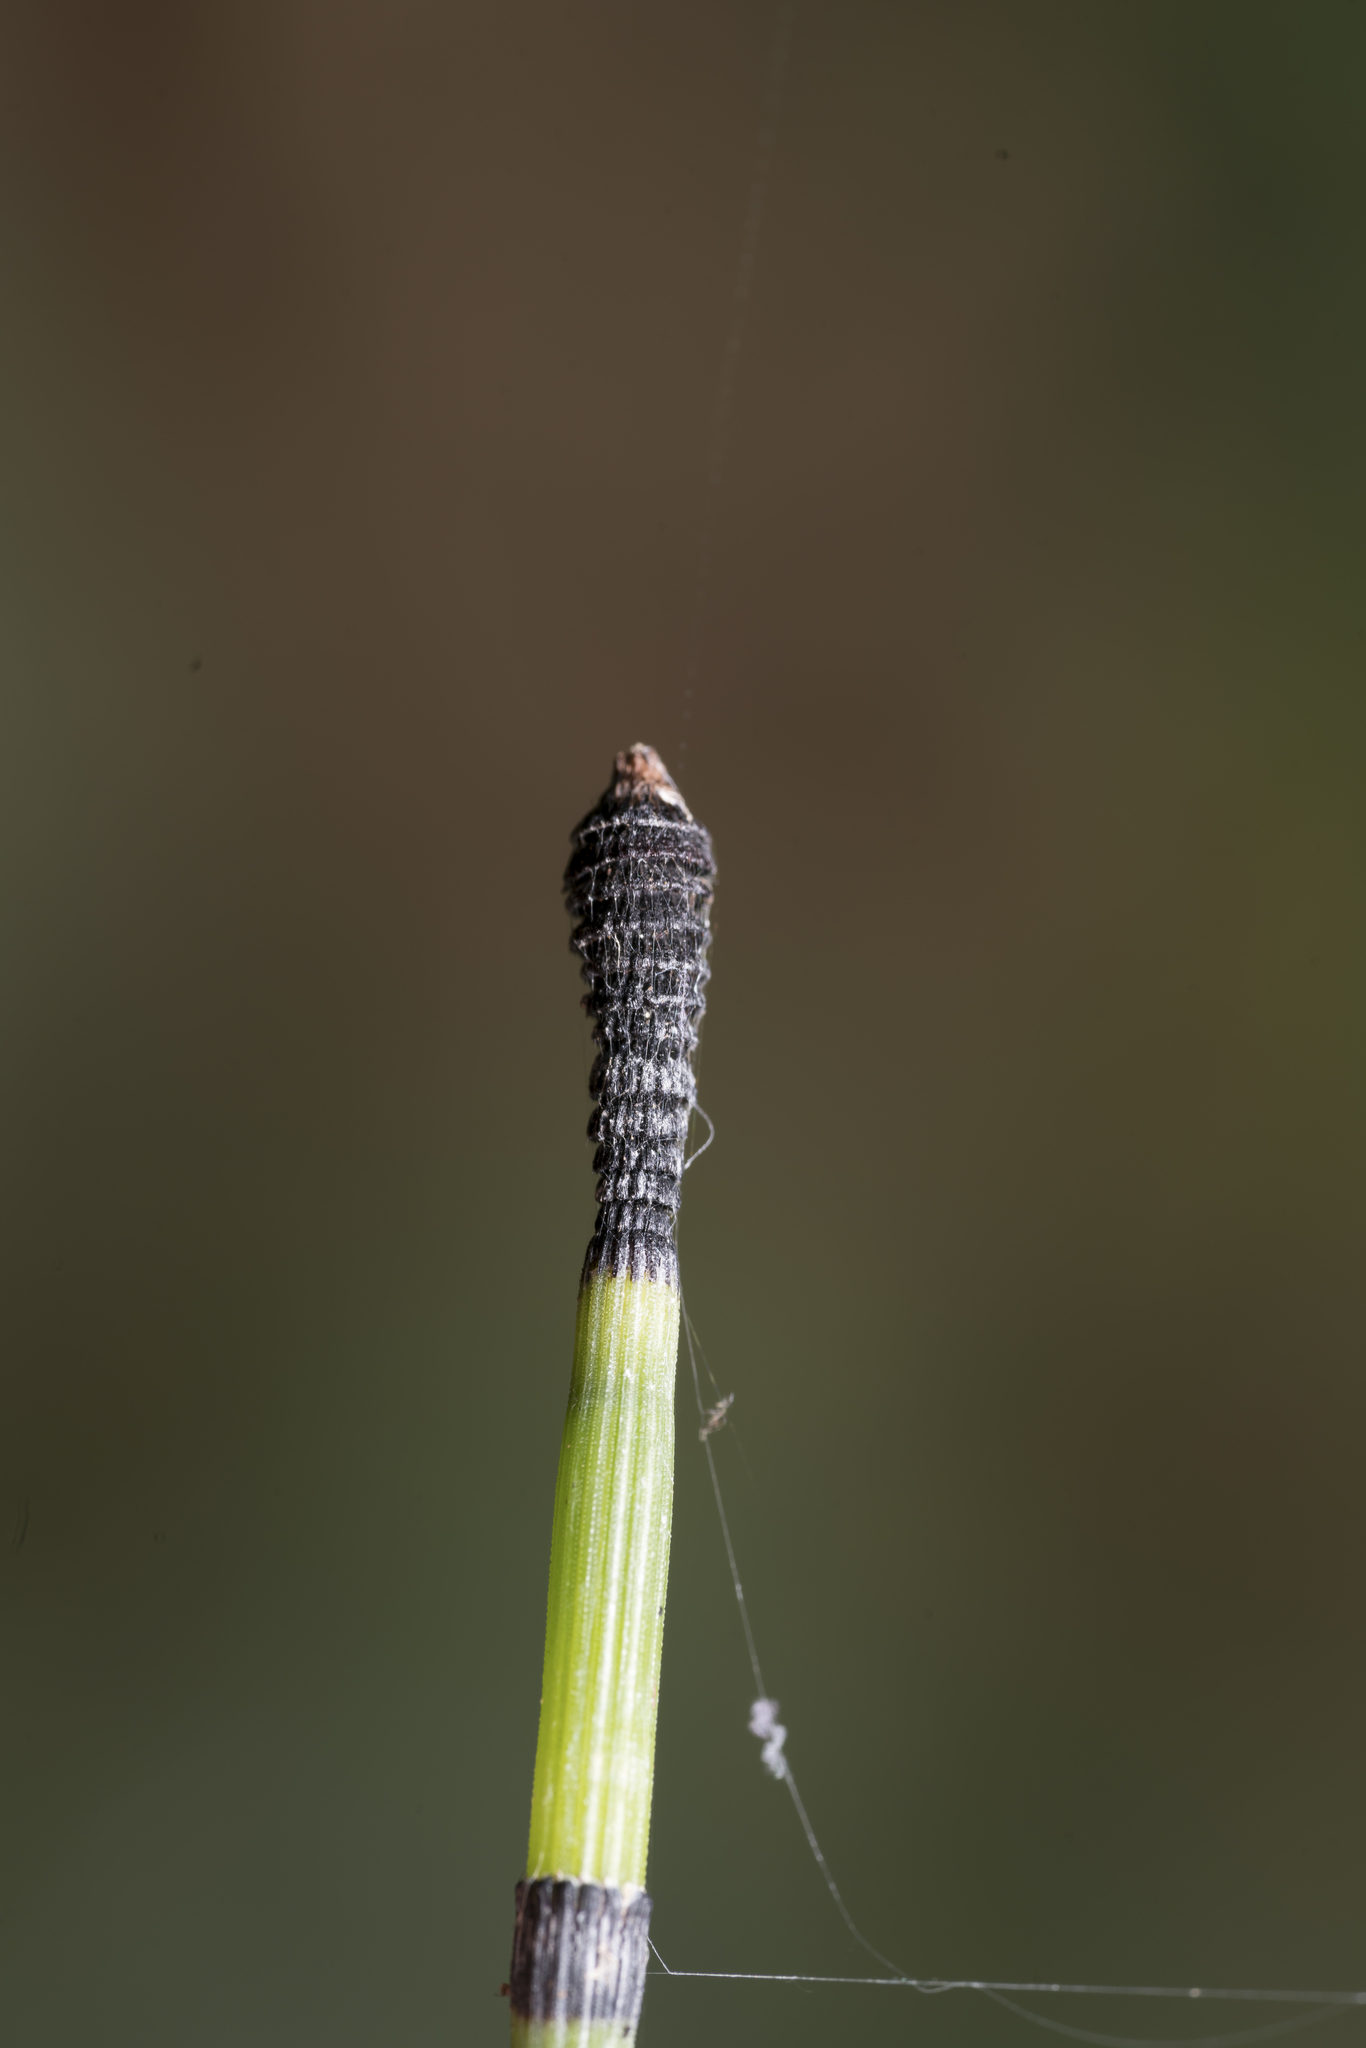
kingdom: Plantae
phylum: Tracheophyta
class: Polypodiopsida
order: Equisetales
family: Equisetaceae
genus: Equisetum
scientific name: Equisetum hyemale
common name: Rough horsetail
